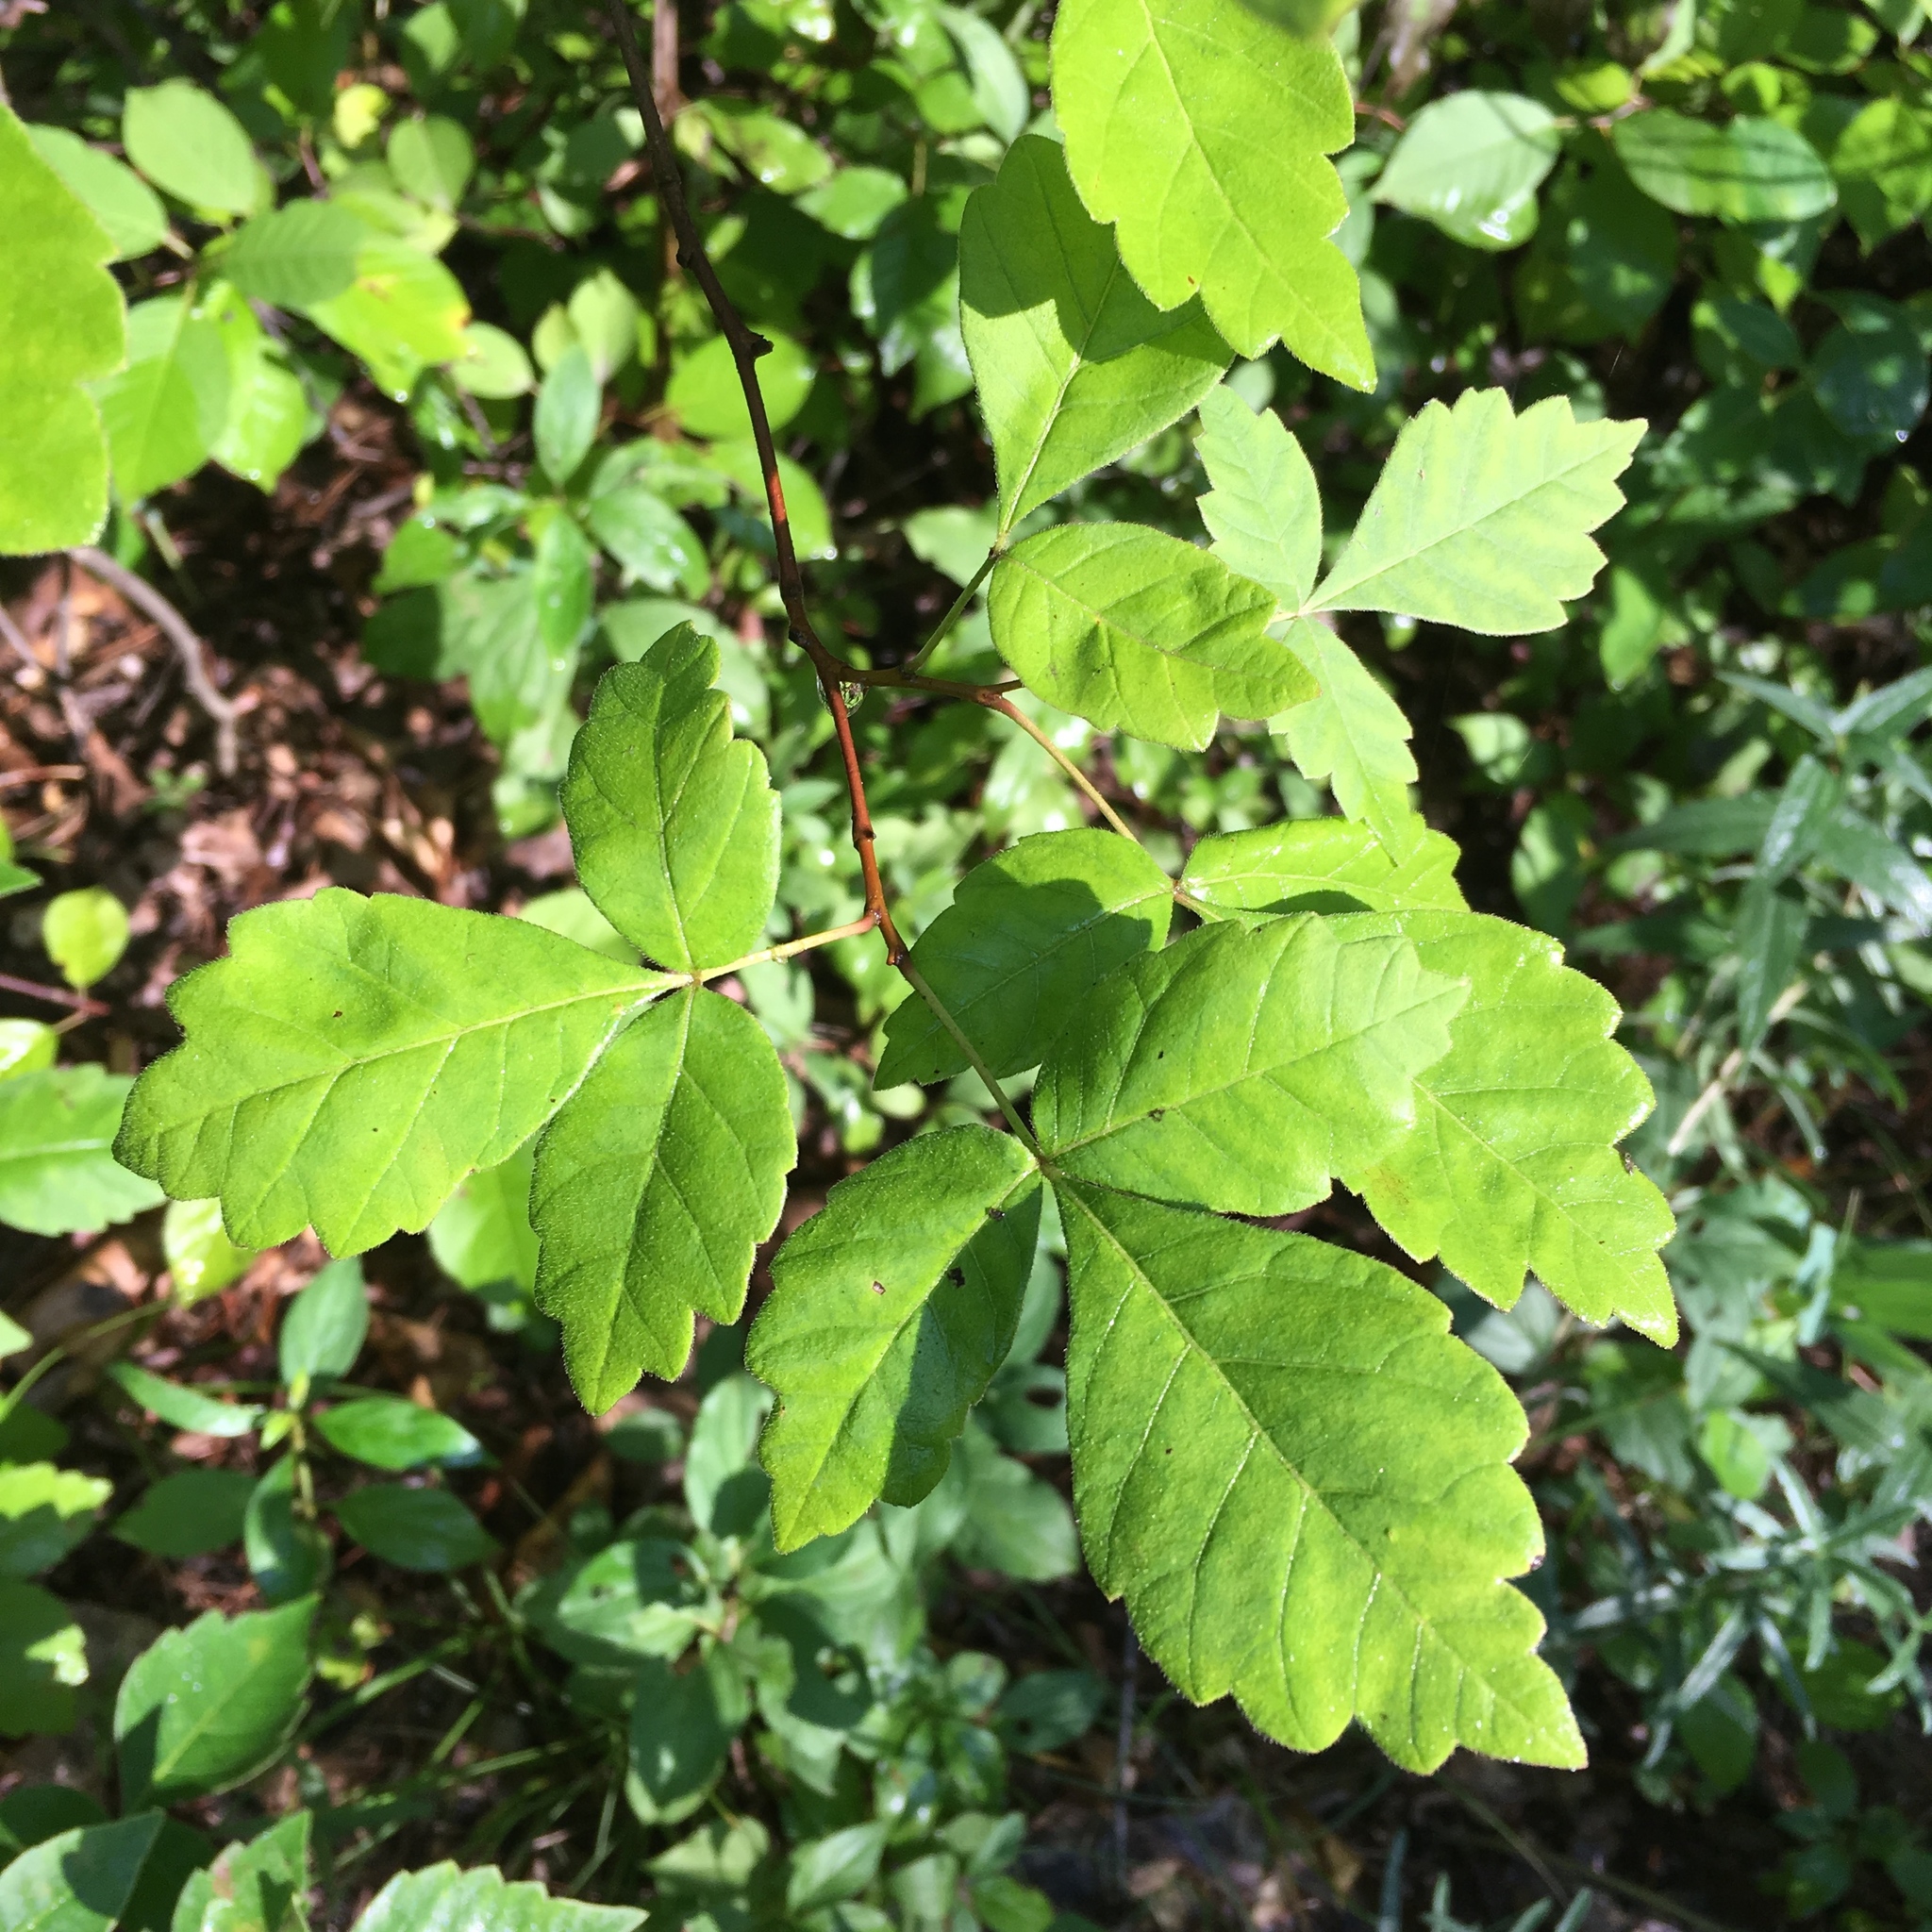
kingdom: Plantae
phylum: Tracheophyta
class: Magnoliopsida
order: Sapindales
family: Anacardiaceae
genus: Rhus
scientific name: Rhus aromatica
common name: Aromatic sumac
